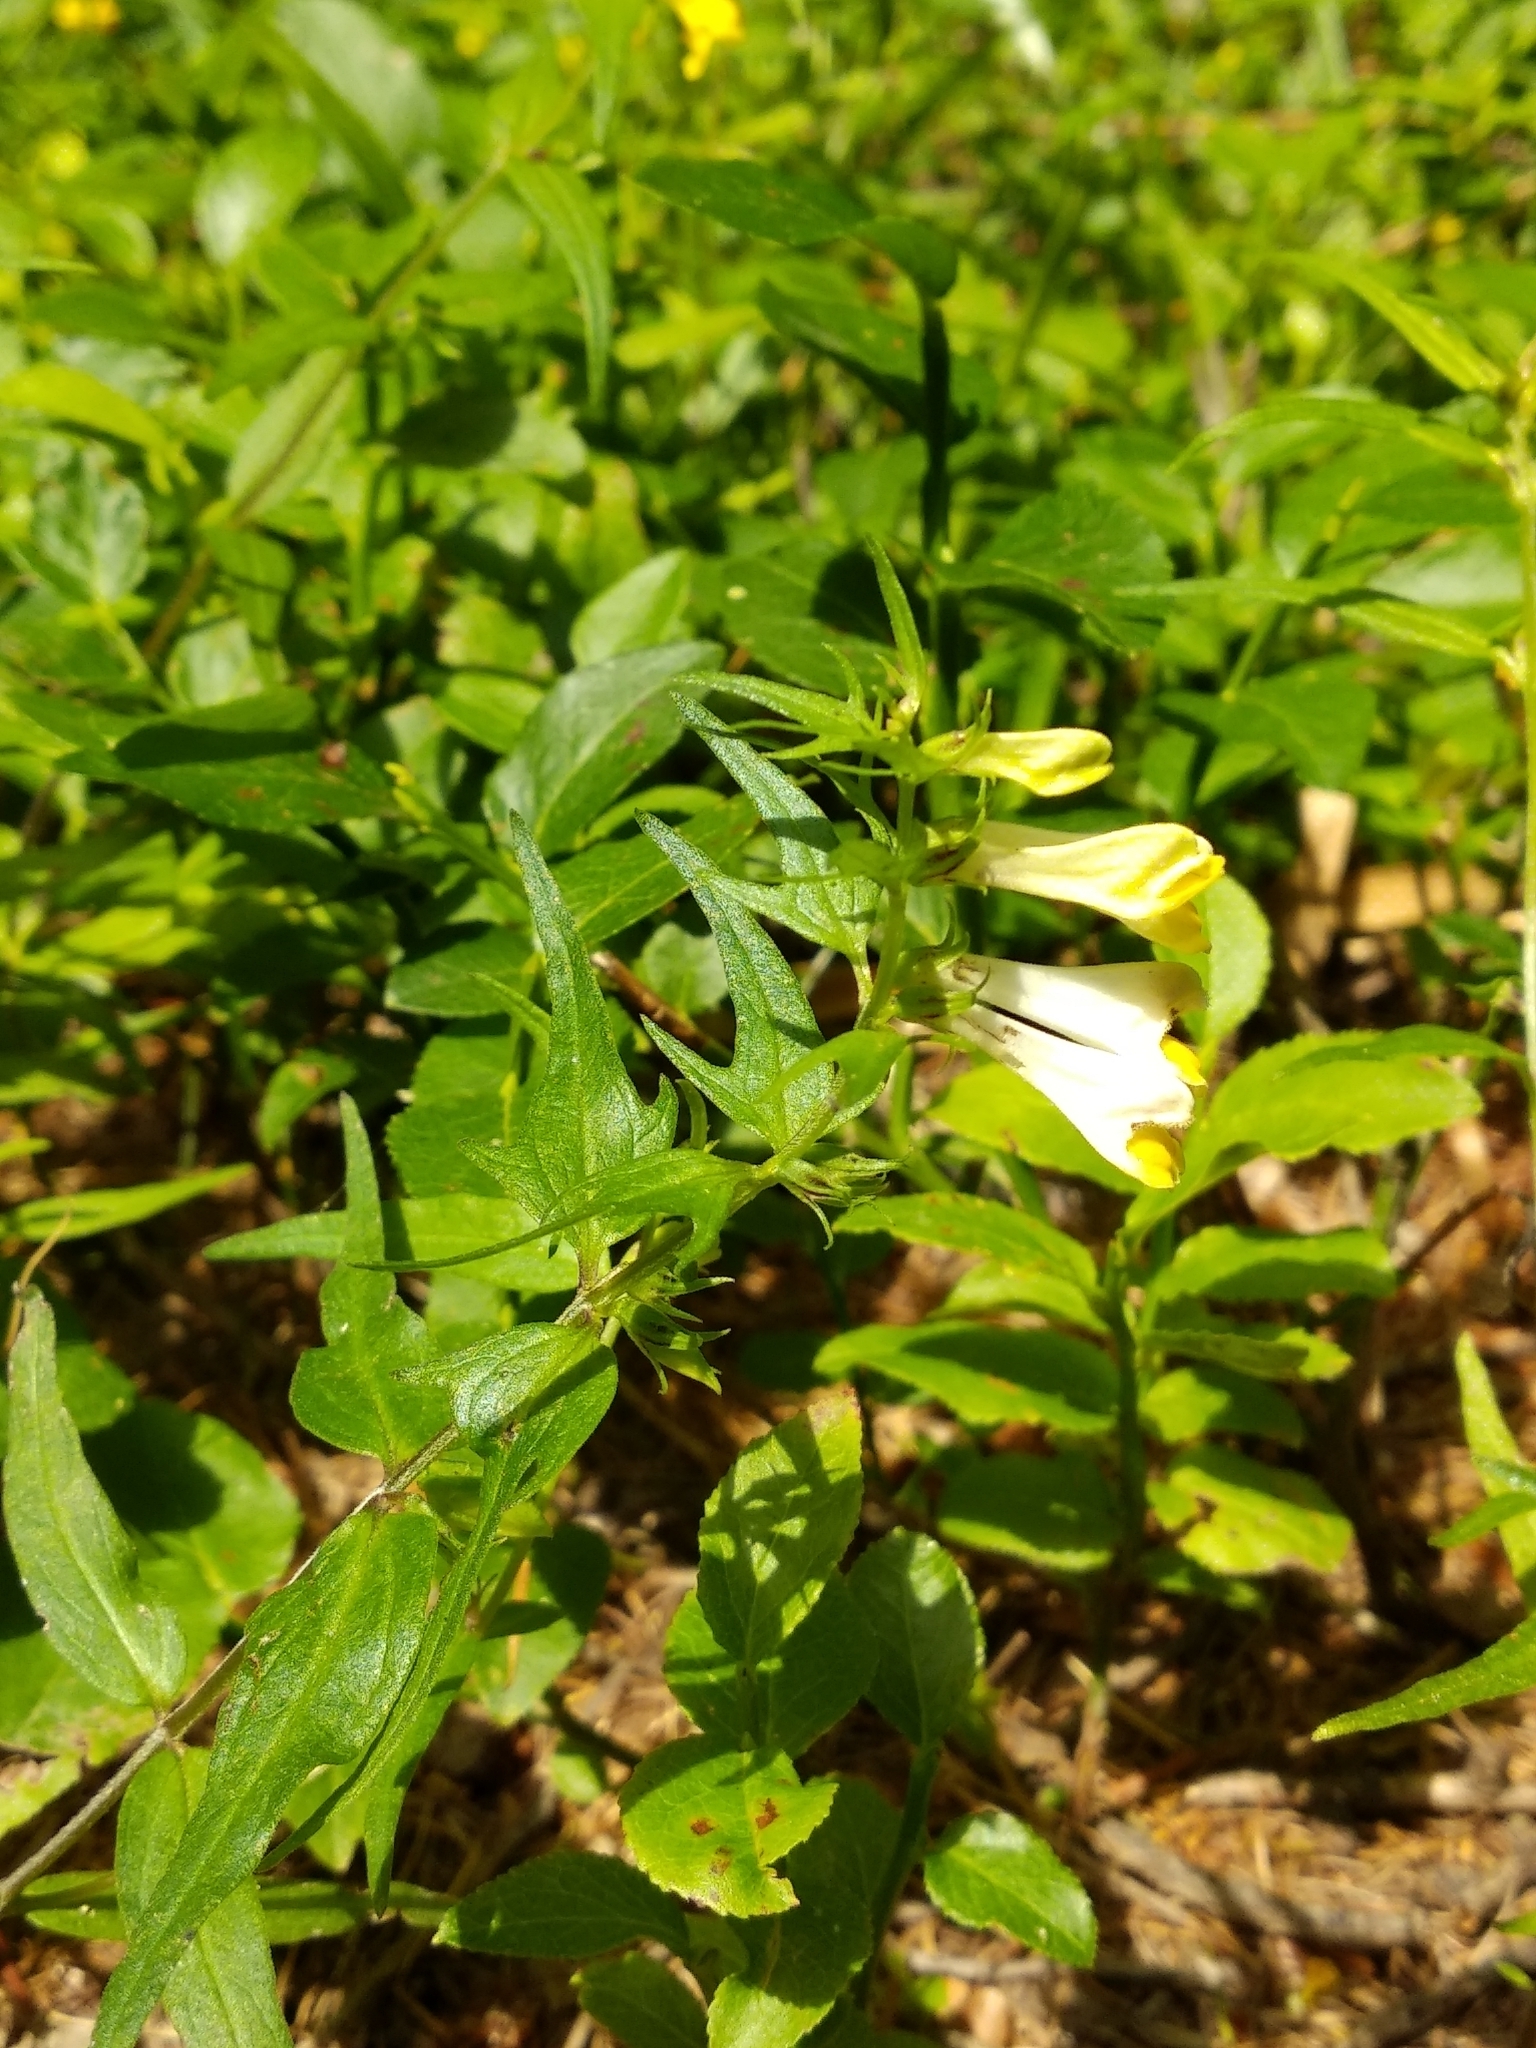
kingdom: Plantae
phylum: Tracheophyta
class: Magnoliopsida
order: Lamiales
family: Orobanchaceae
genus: Melampyrum
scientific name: Melampyrum pratense
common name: Common cow-wheat
